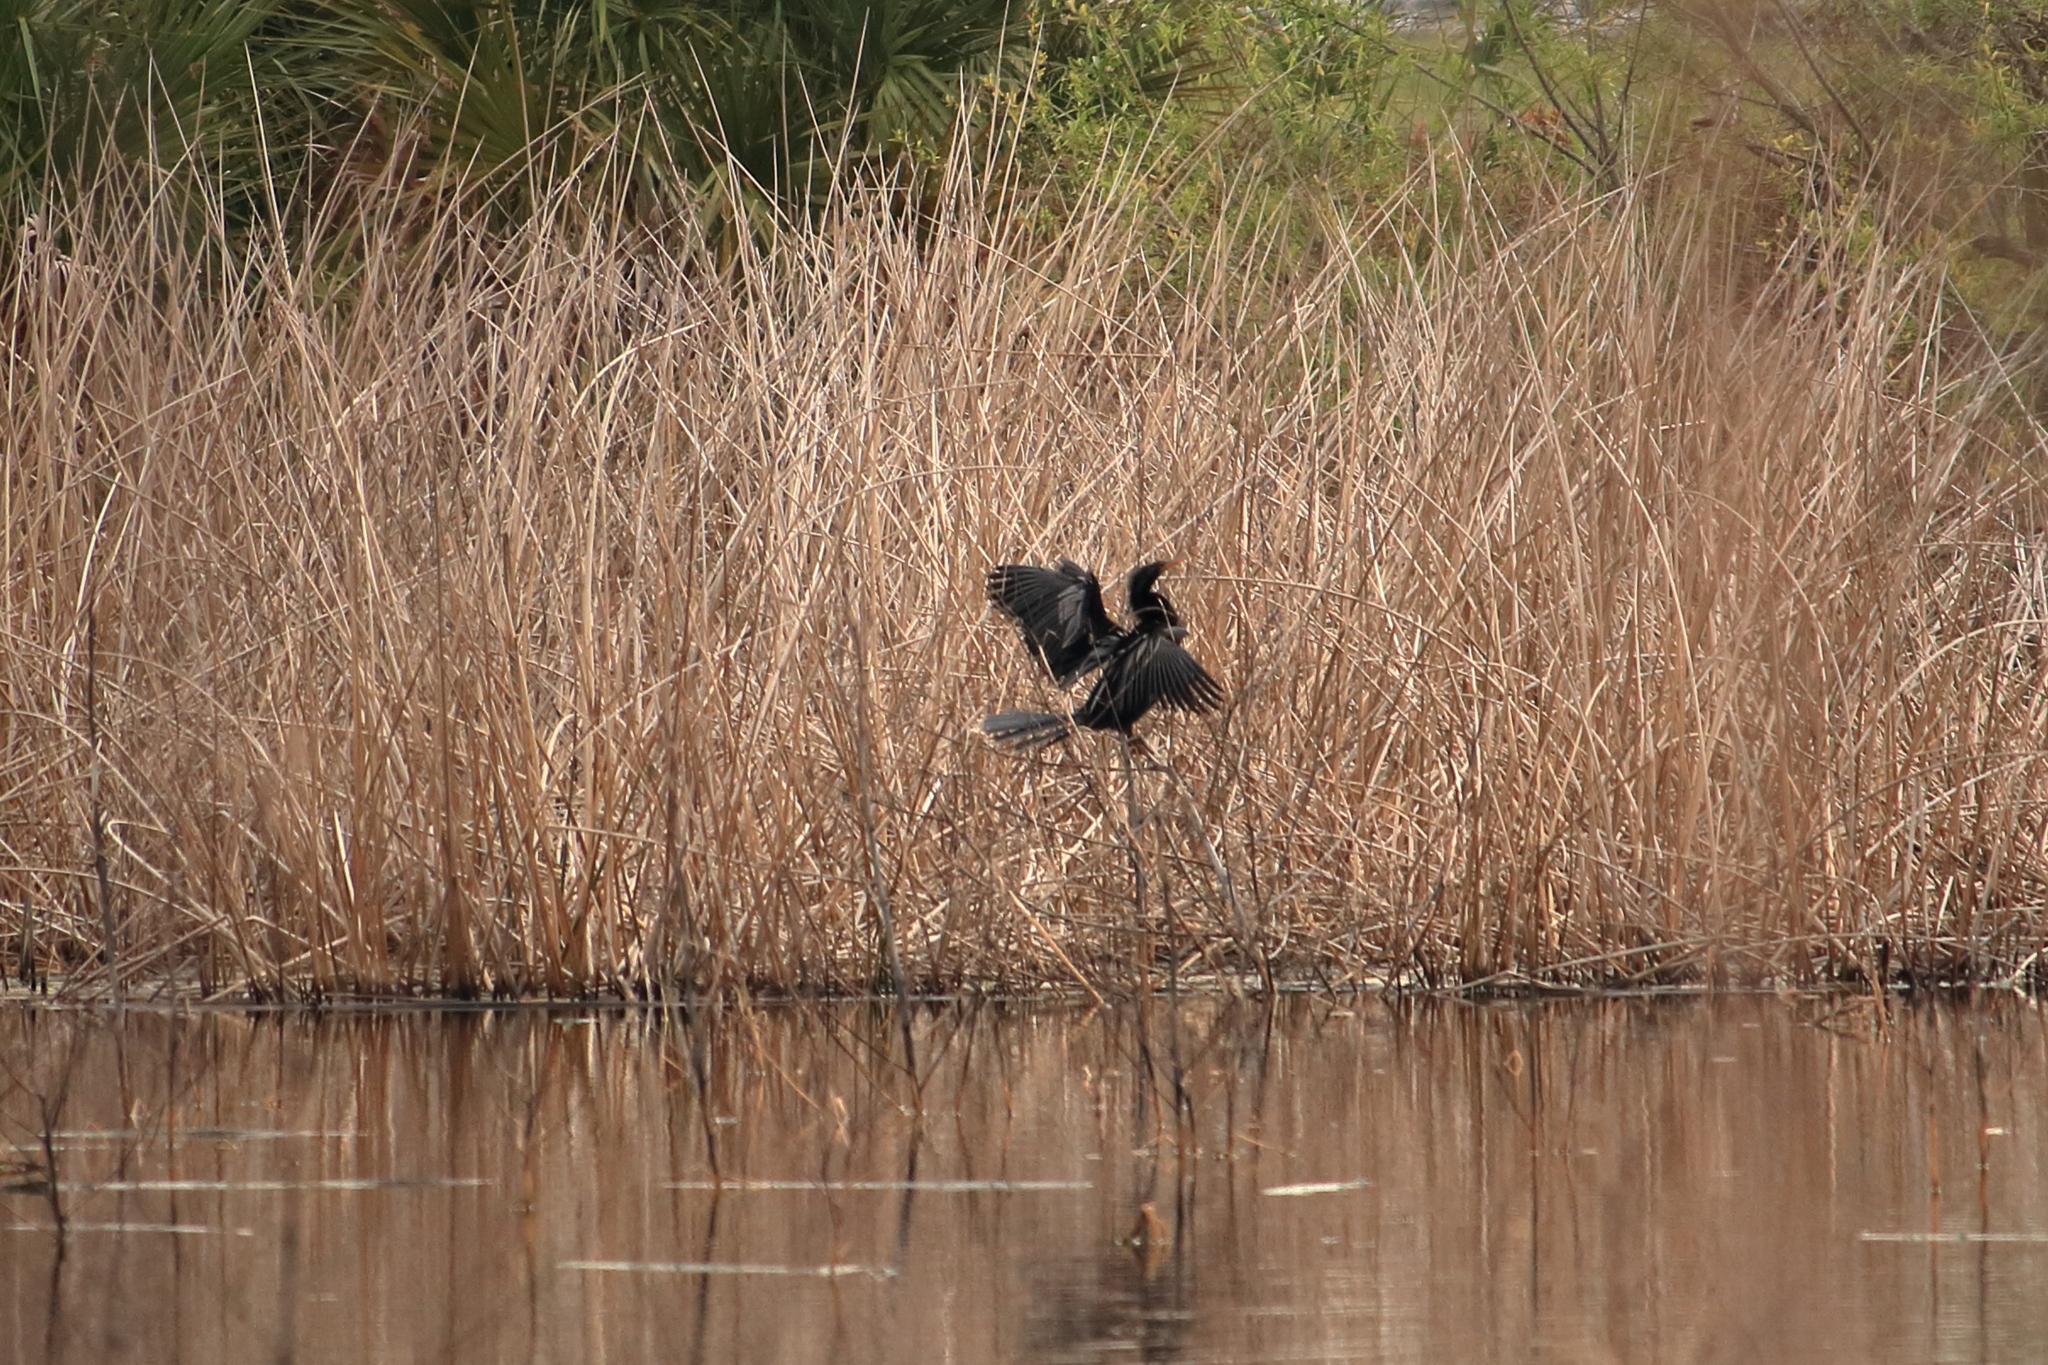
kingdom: Animalia
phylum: Chordata
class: Aves
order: Suliformes
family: Anhingidae
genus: Anhinga
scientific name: Anhinga anhinga
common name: Anhinga
